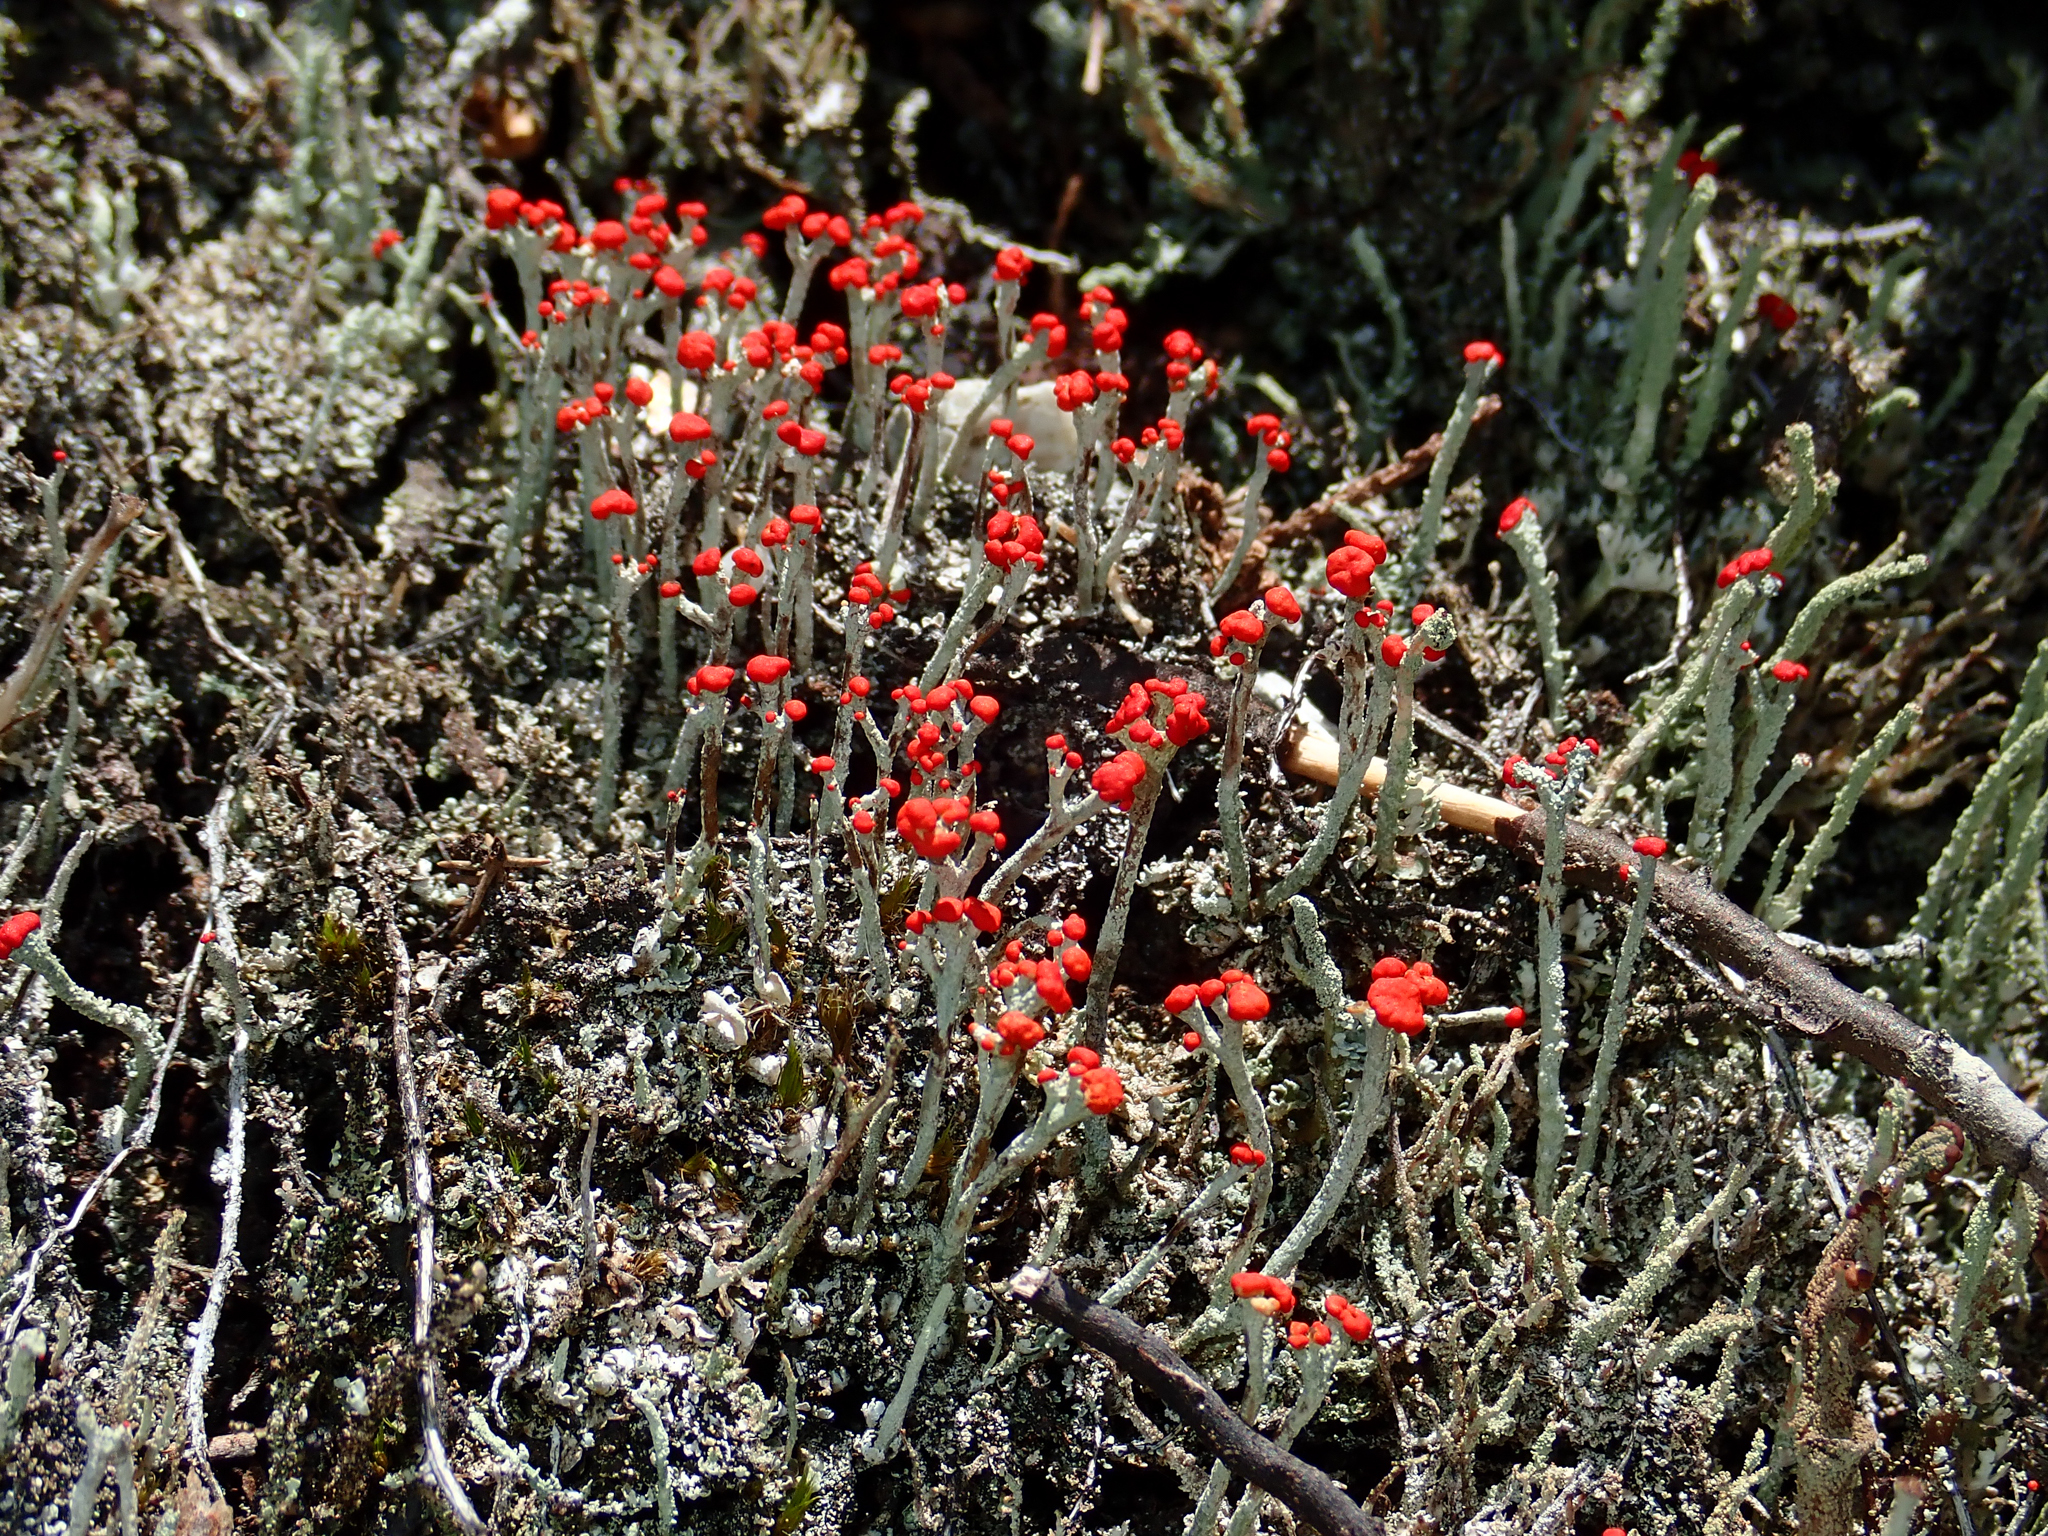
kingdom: Fungi
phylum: Ascomycota
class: Lecanoromycetes
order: Lecanorales
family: Cladoniaceae
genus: Cladonia
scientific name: Cladonia floerkeana
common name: Gritty british soldiers lichen
